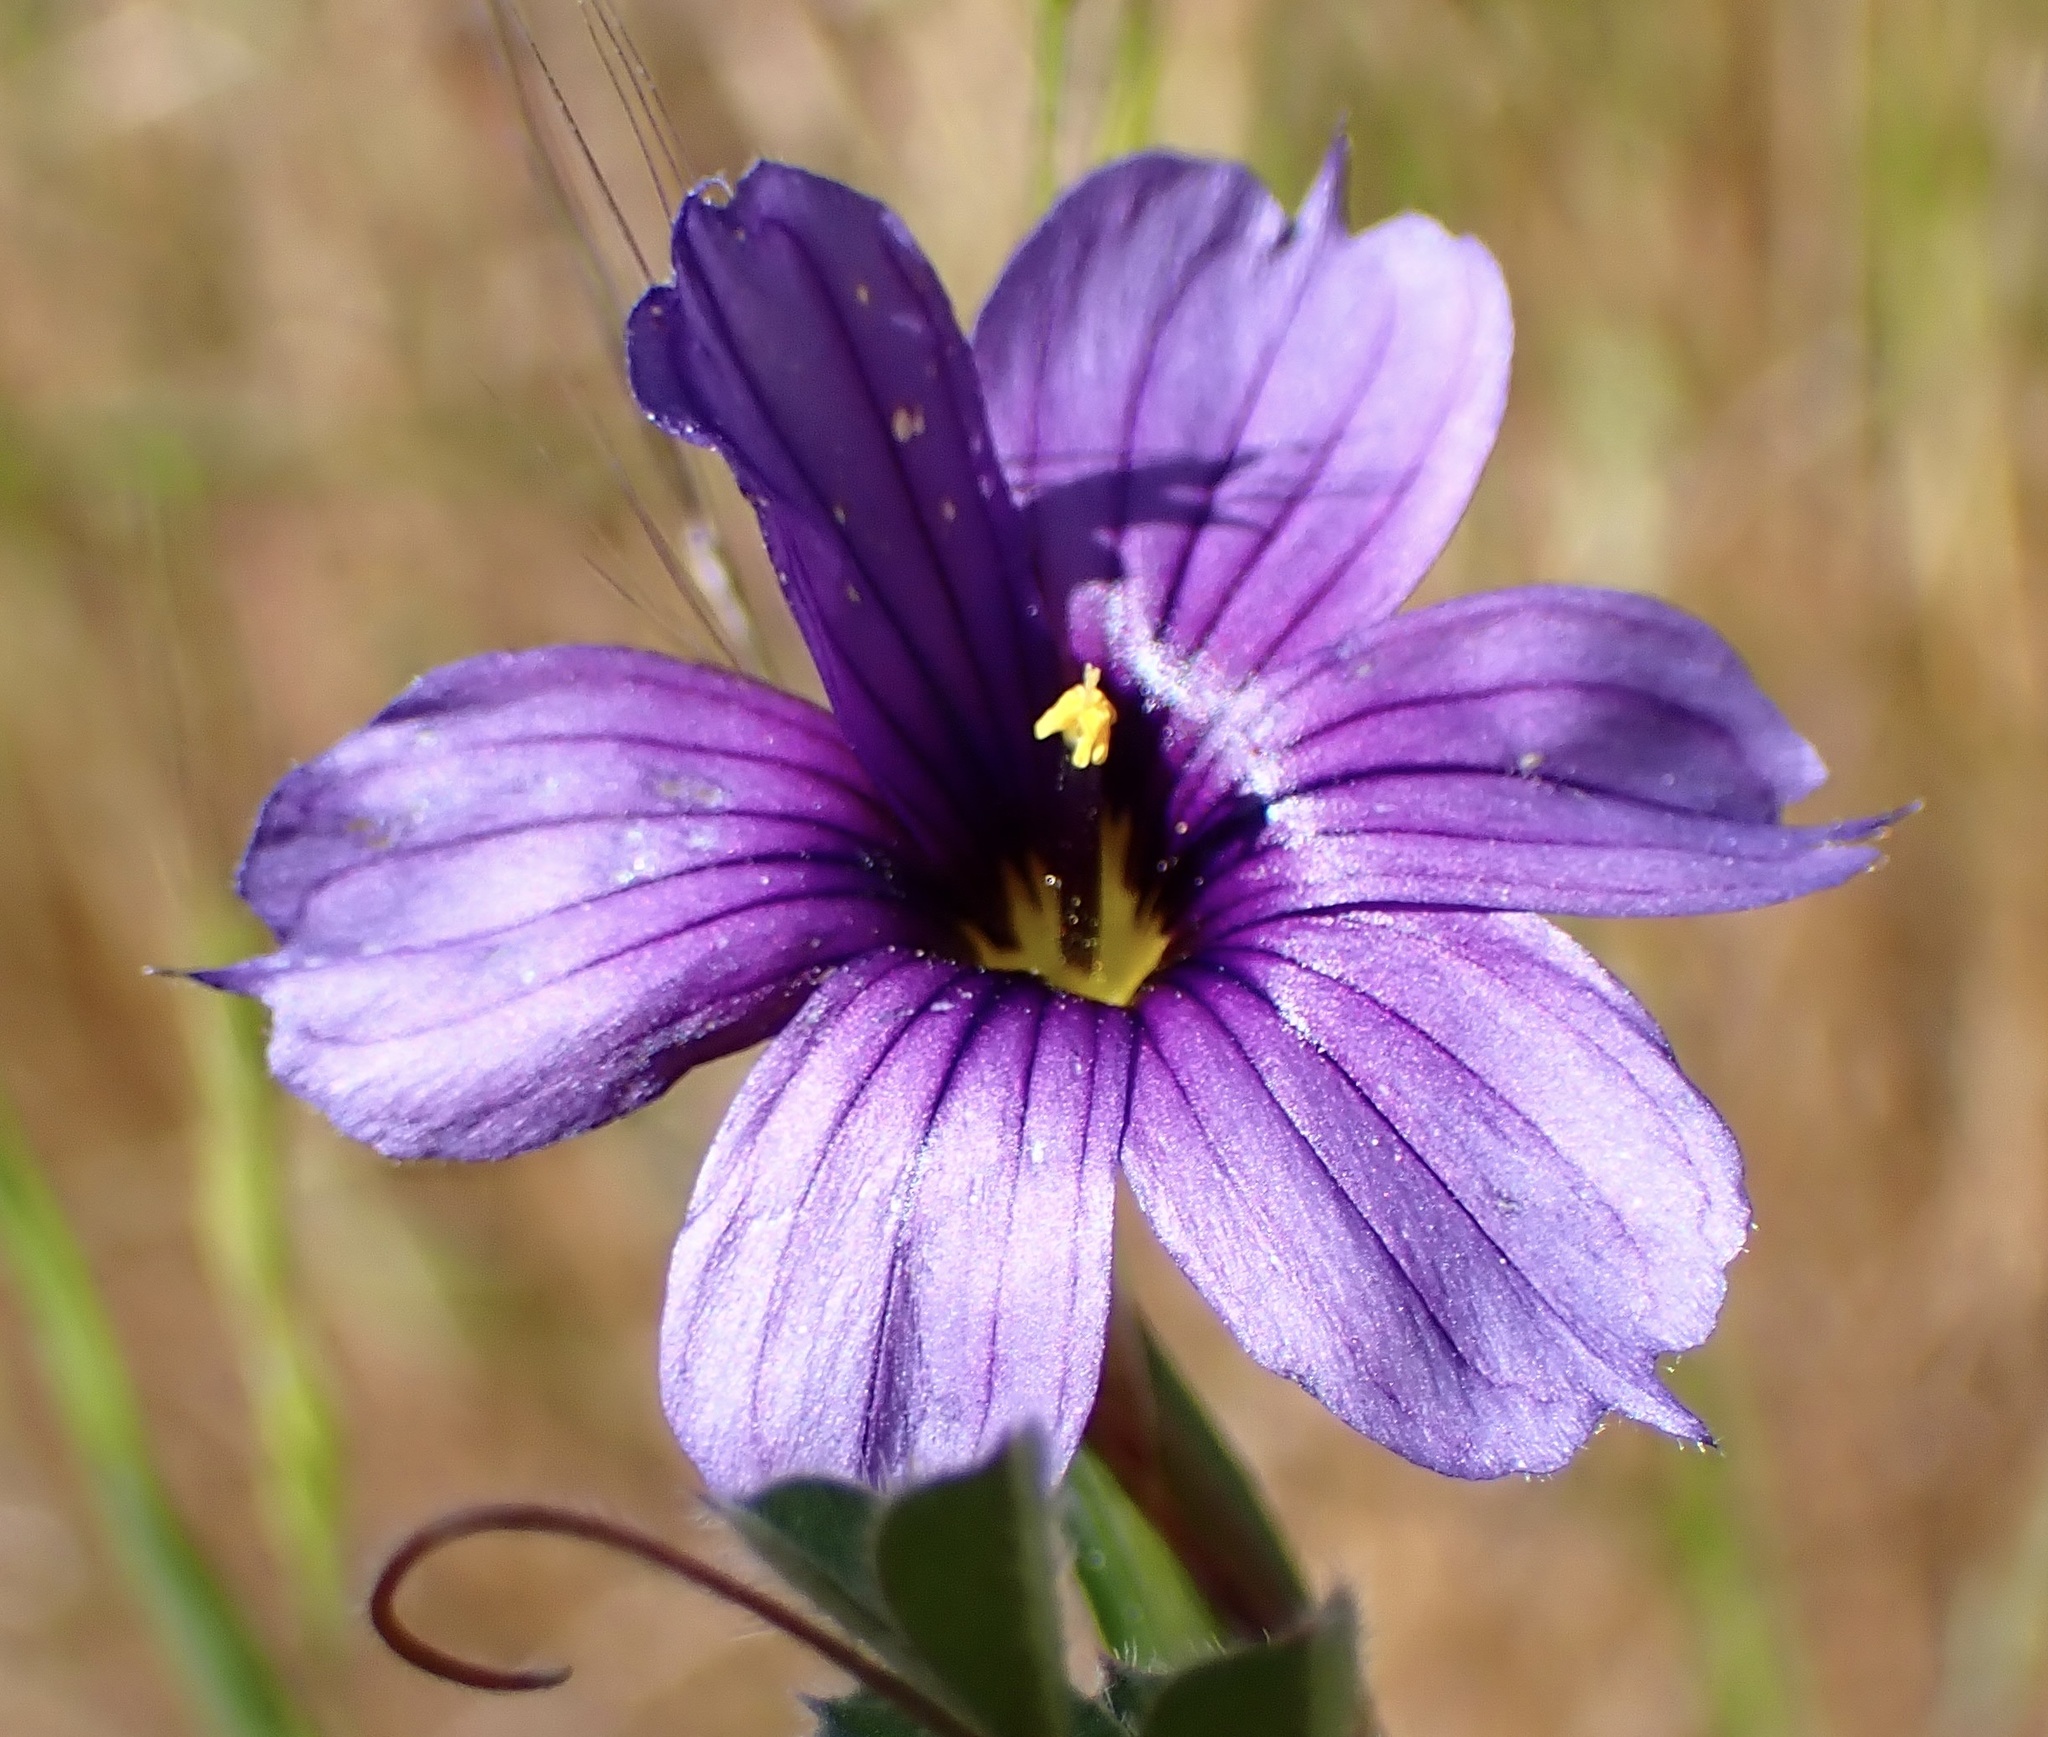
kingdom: Plantae
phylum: Tracheophyta
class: Liliopsida
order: Asparagales
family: Iridaceae
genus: Sisyrinchium
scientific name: Sisyrinchium bellum
